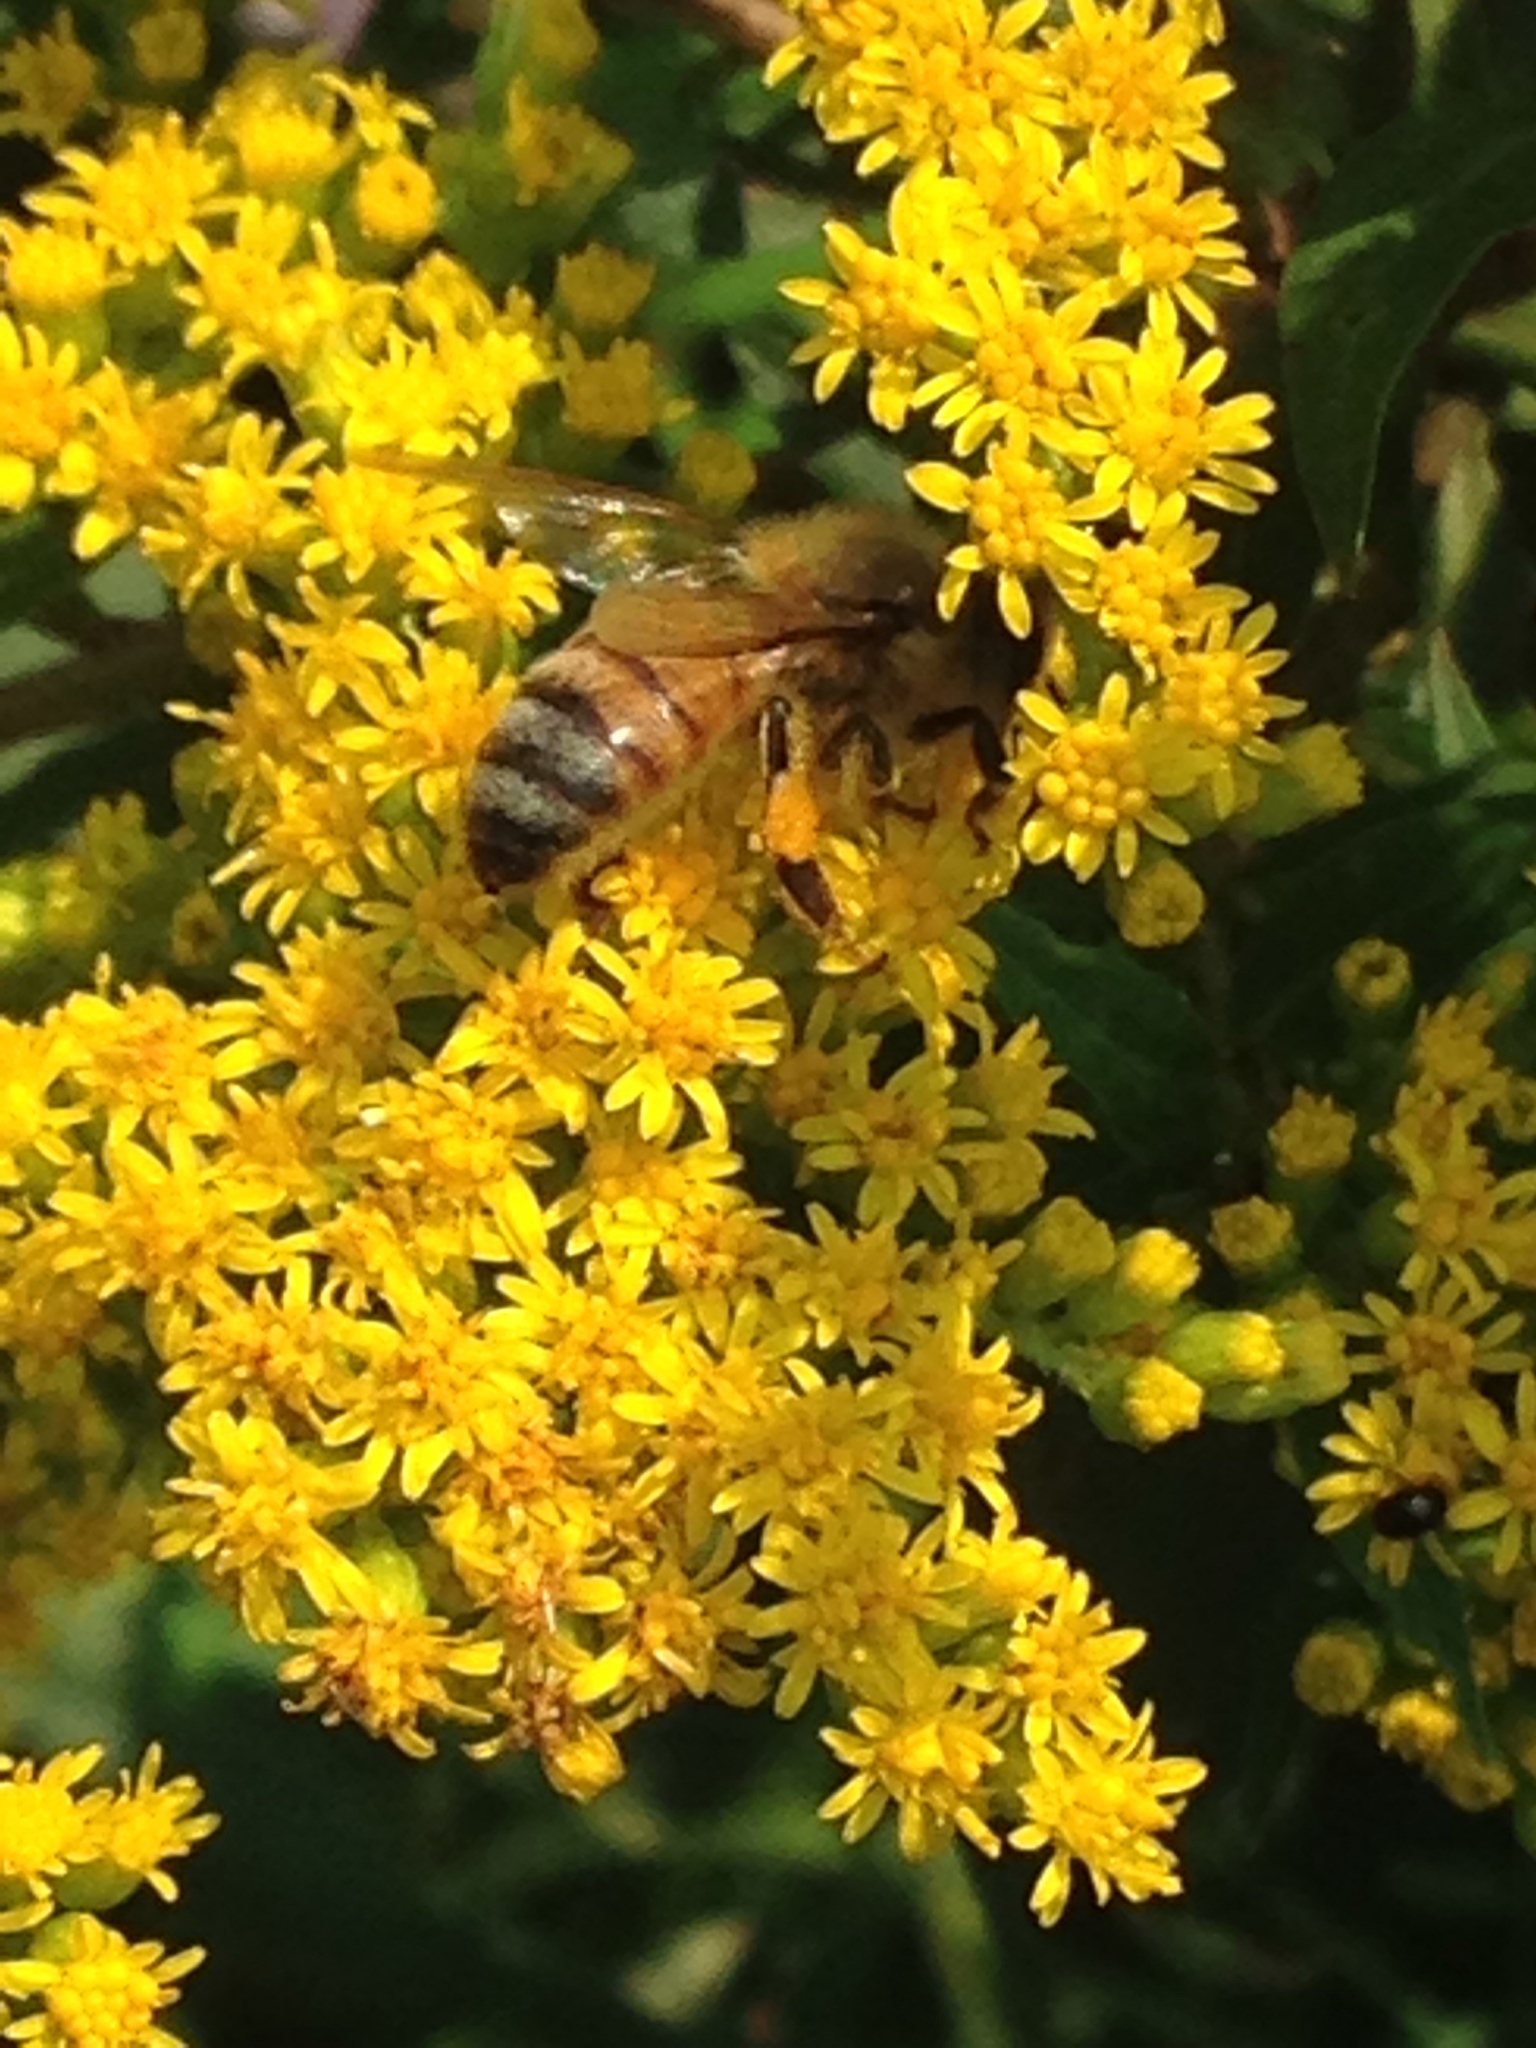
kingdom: Animalia
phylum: Arthropoda
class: Insecta
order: Hymenoptera
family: Apidae
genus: Apis
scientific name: Apis mellifera
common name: Honey bee
